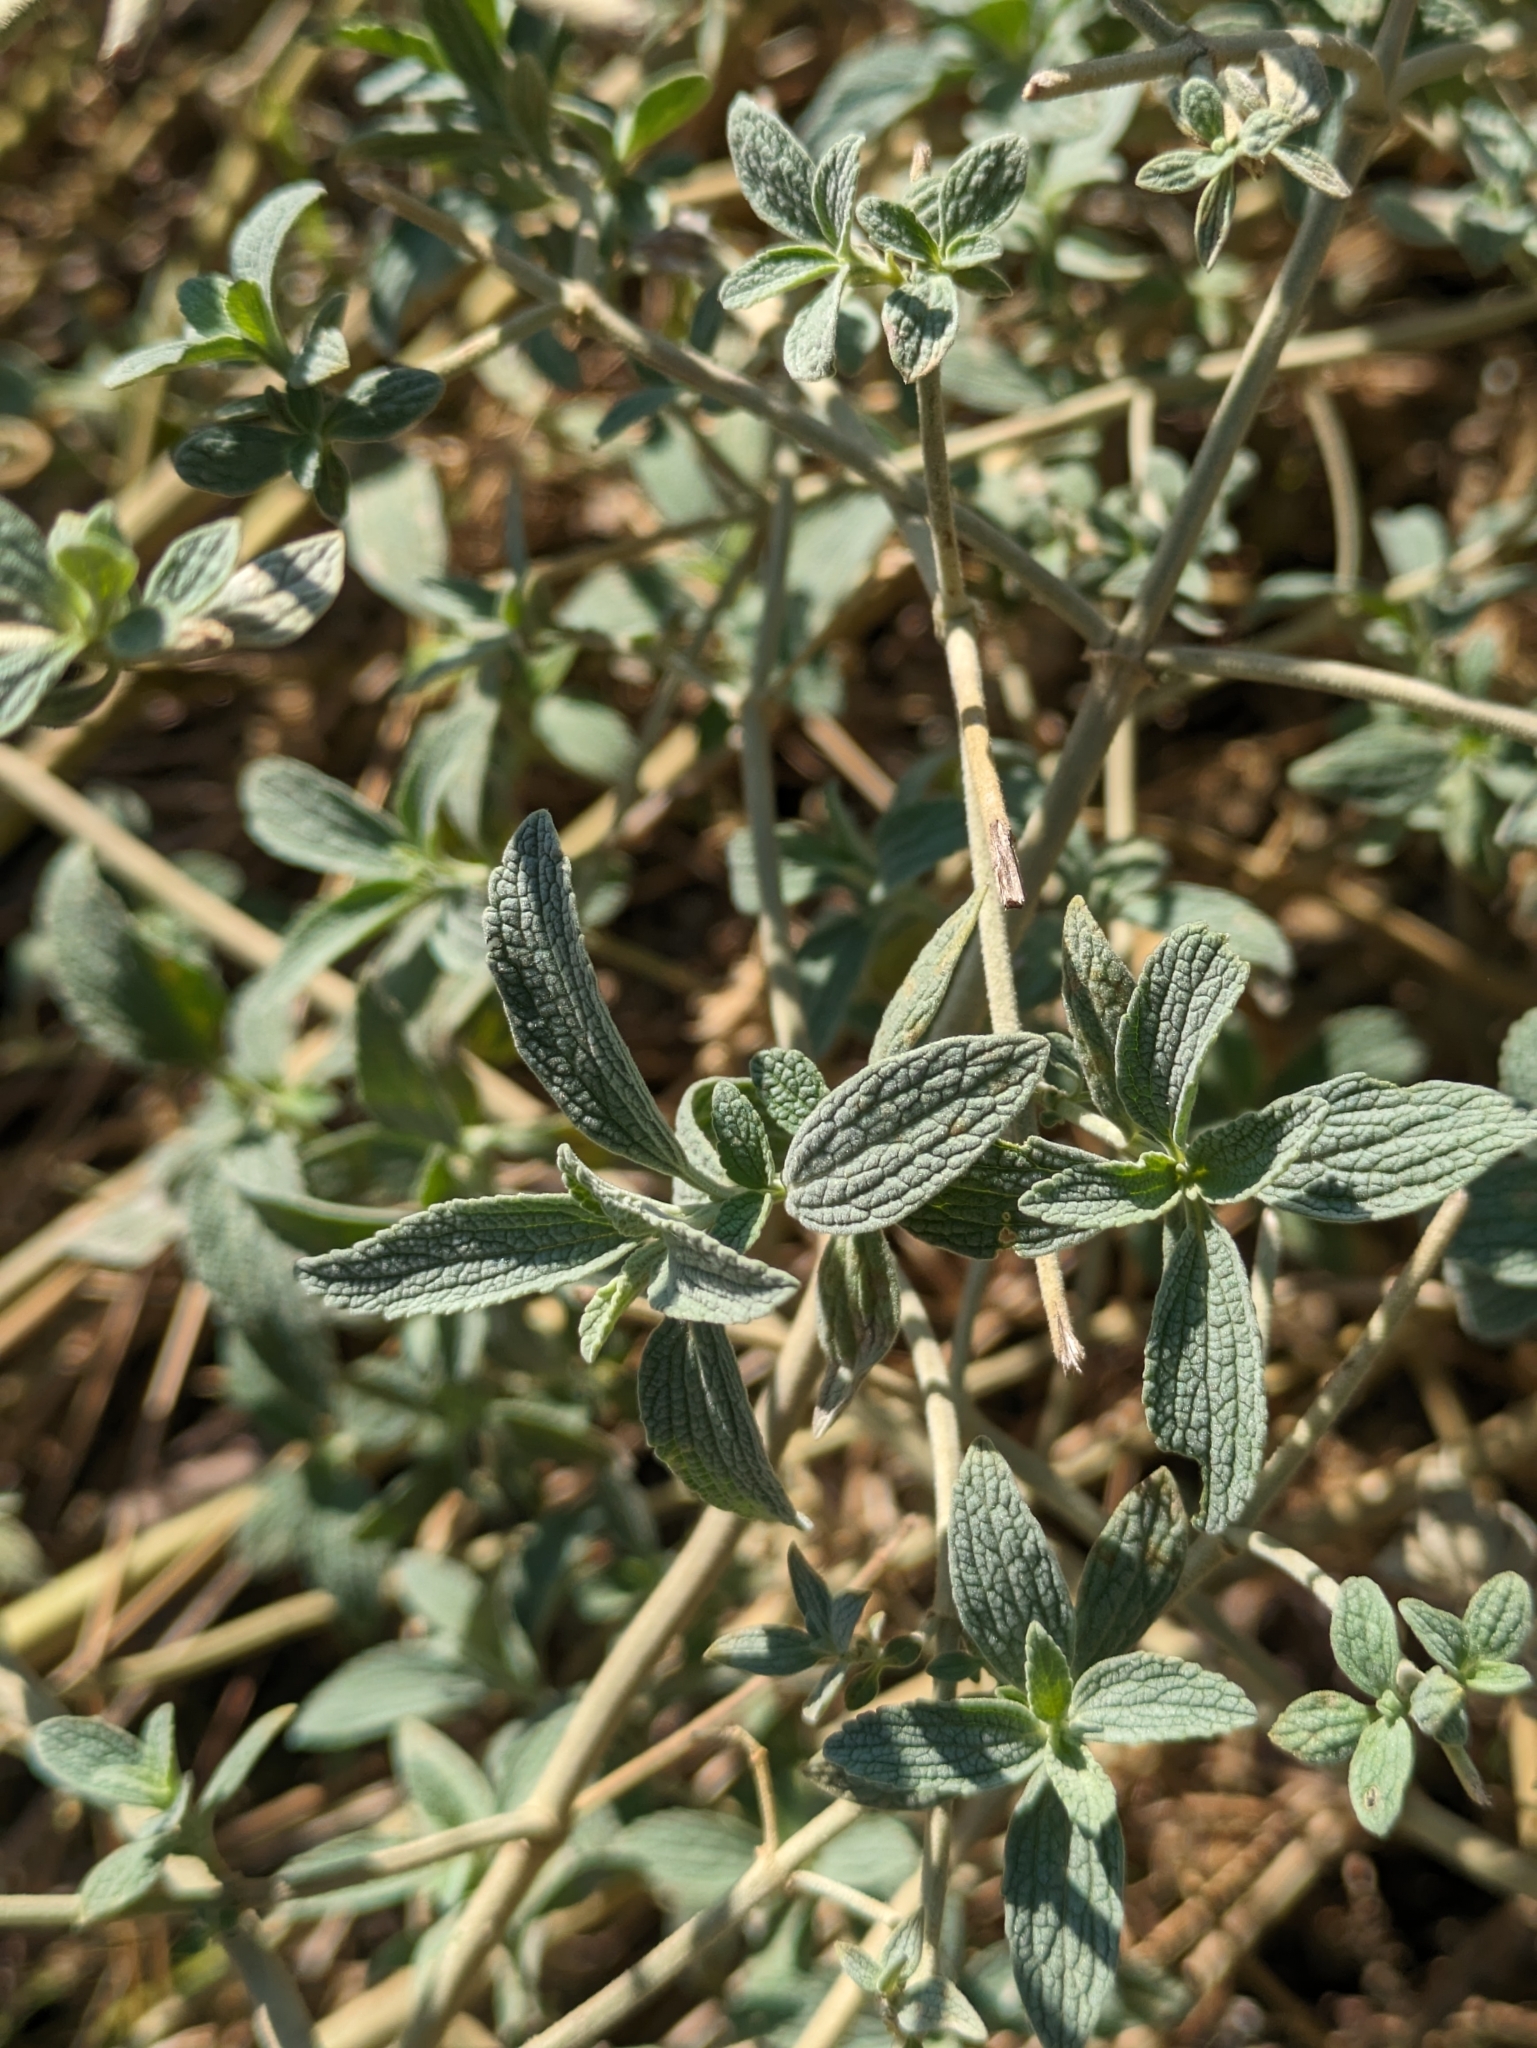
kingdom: Plantae
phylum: Tracheophyta
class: Magnoliopsida
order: Lamiales
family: Lamiaceae
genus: Marrubium
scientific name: Marrubium peregrinum
